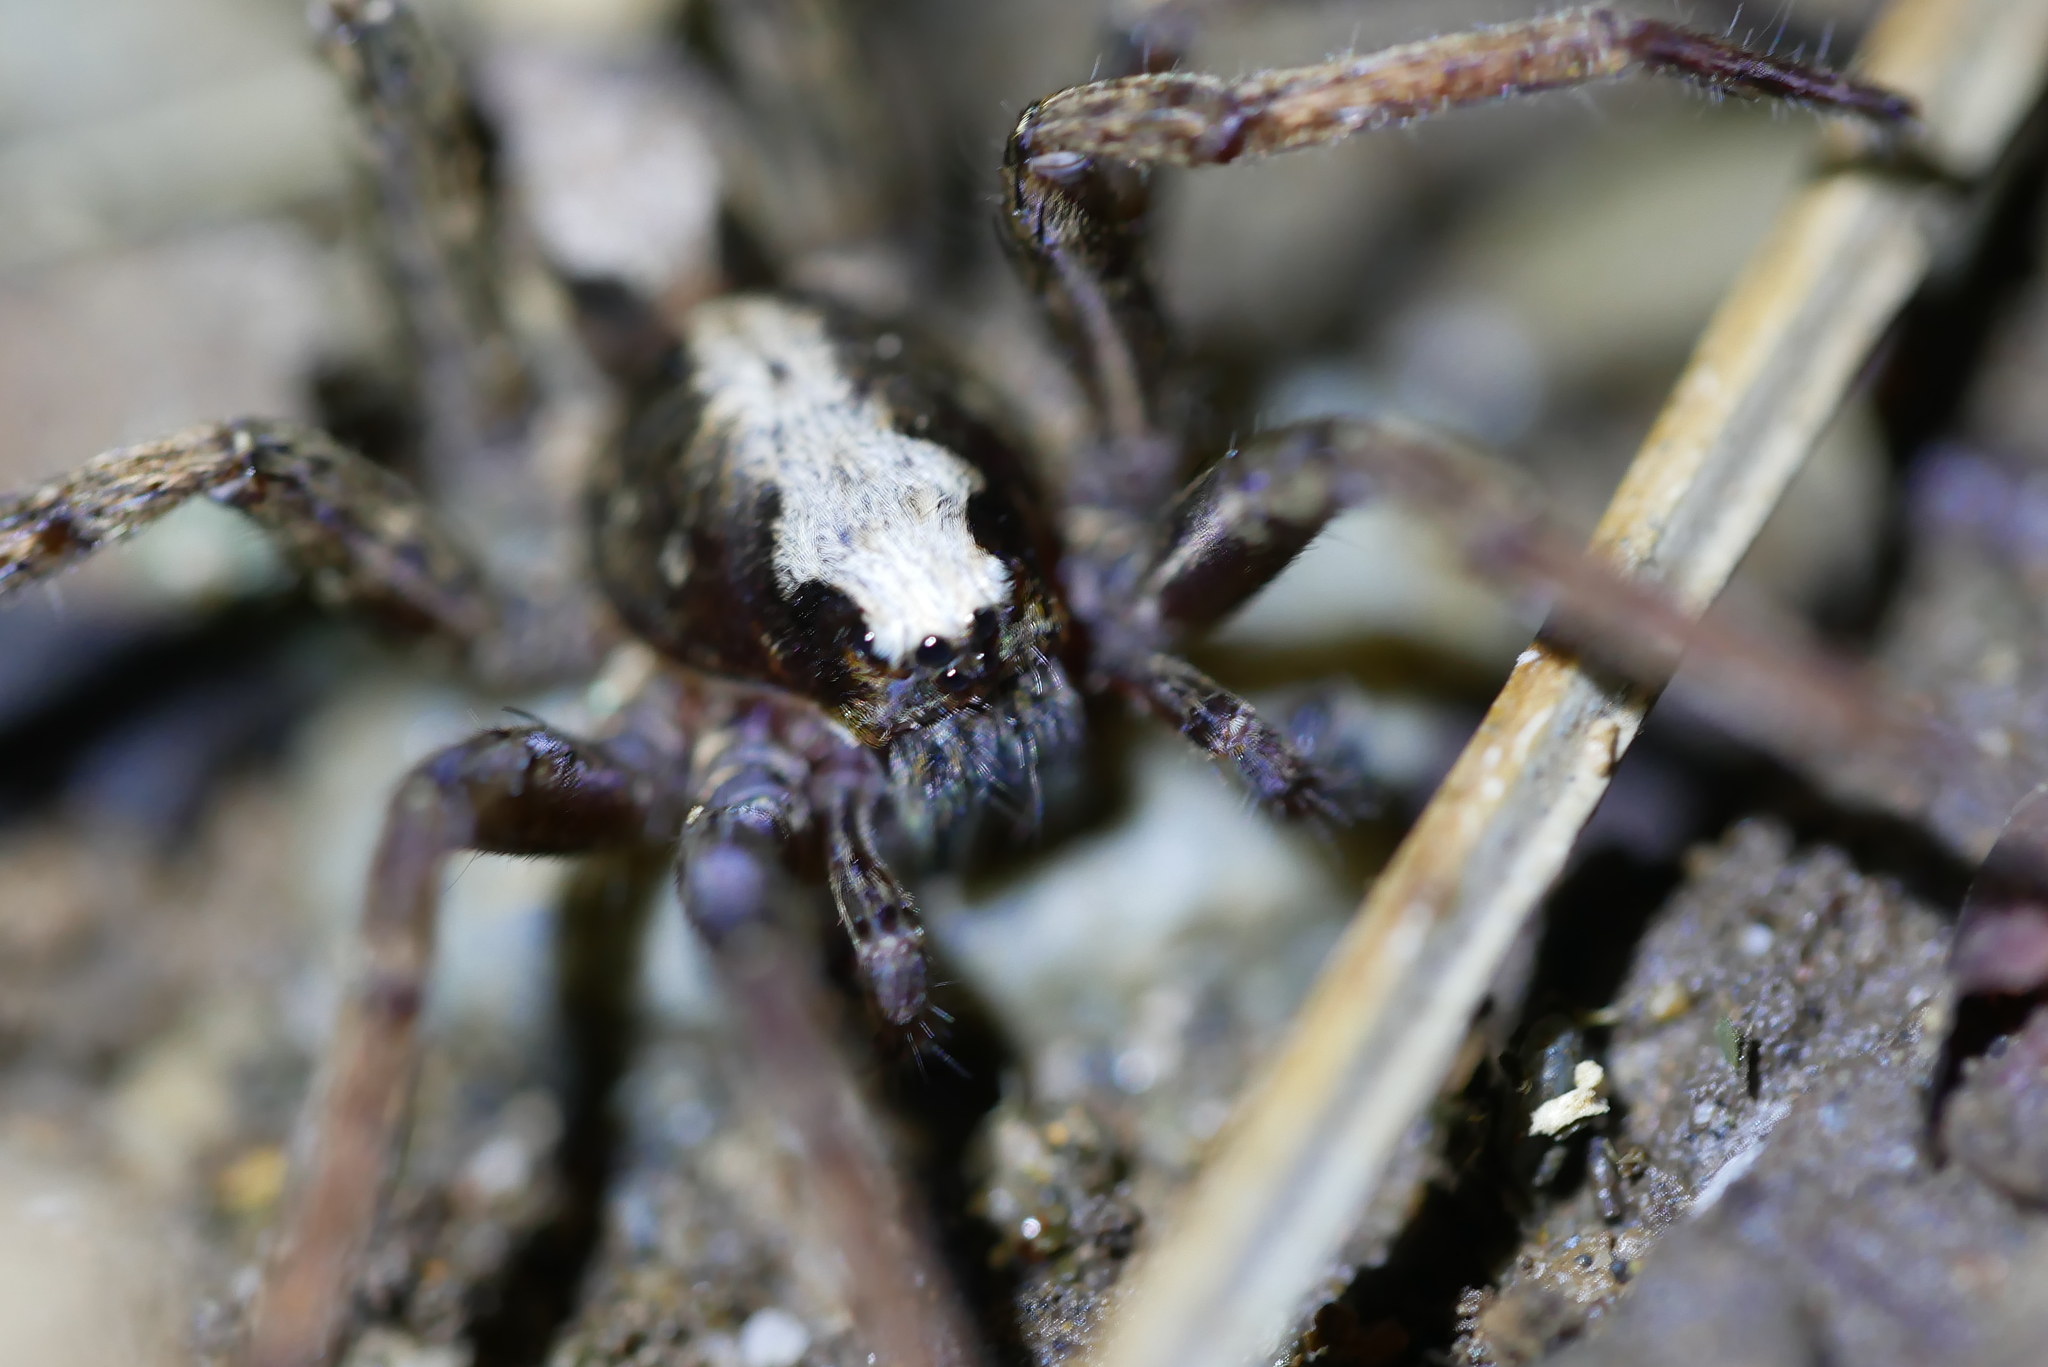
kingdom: Animalia
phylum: Arthropoda
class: Arachnida
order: Araneae
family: Ctenidae
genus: Ctenus
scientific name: Ctenus yaeyamensis
